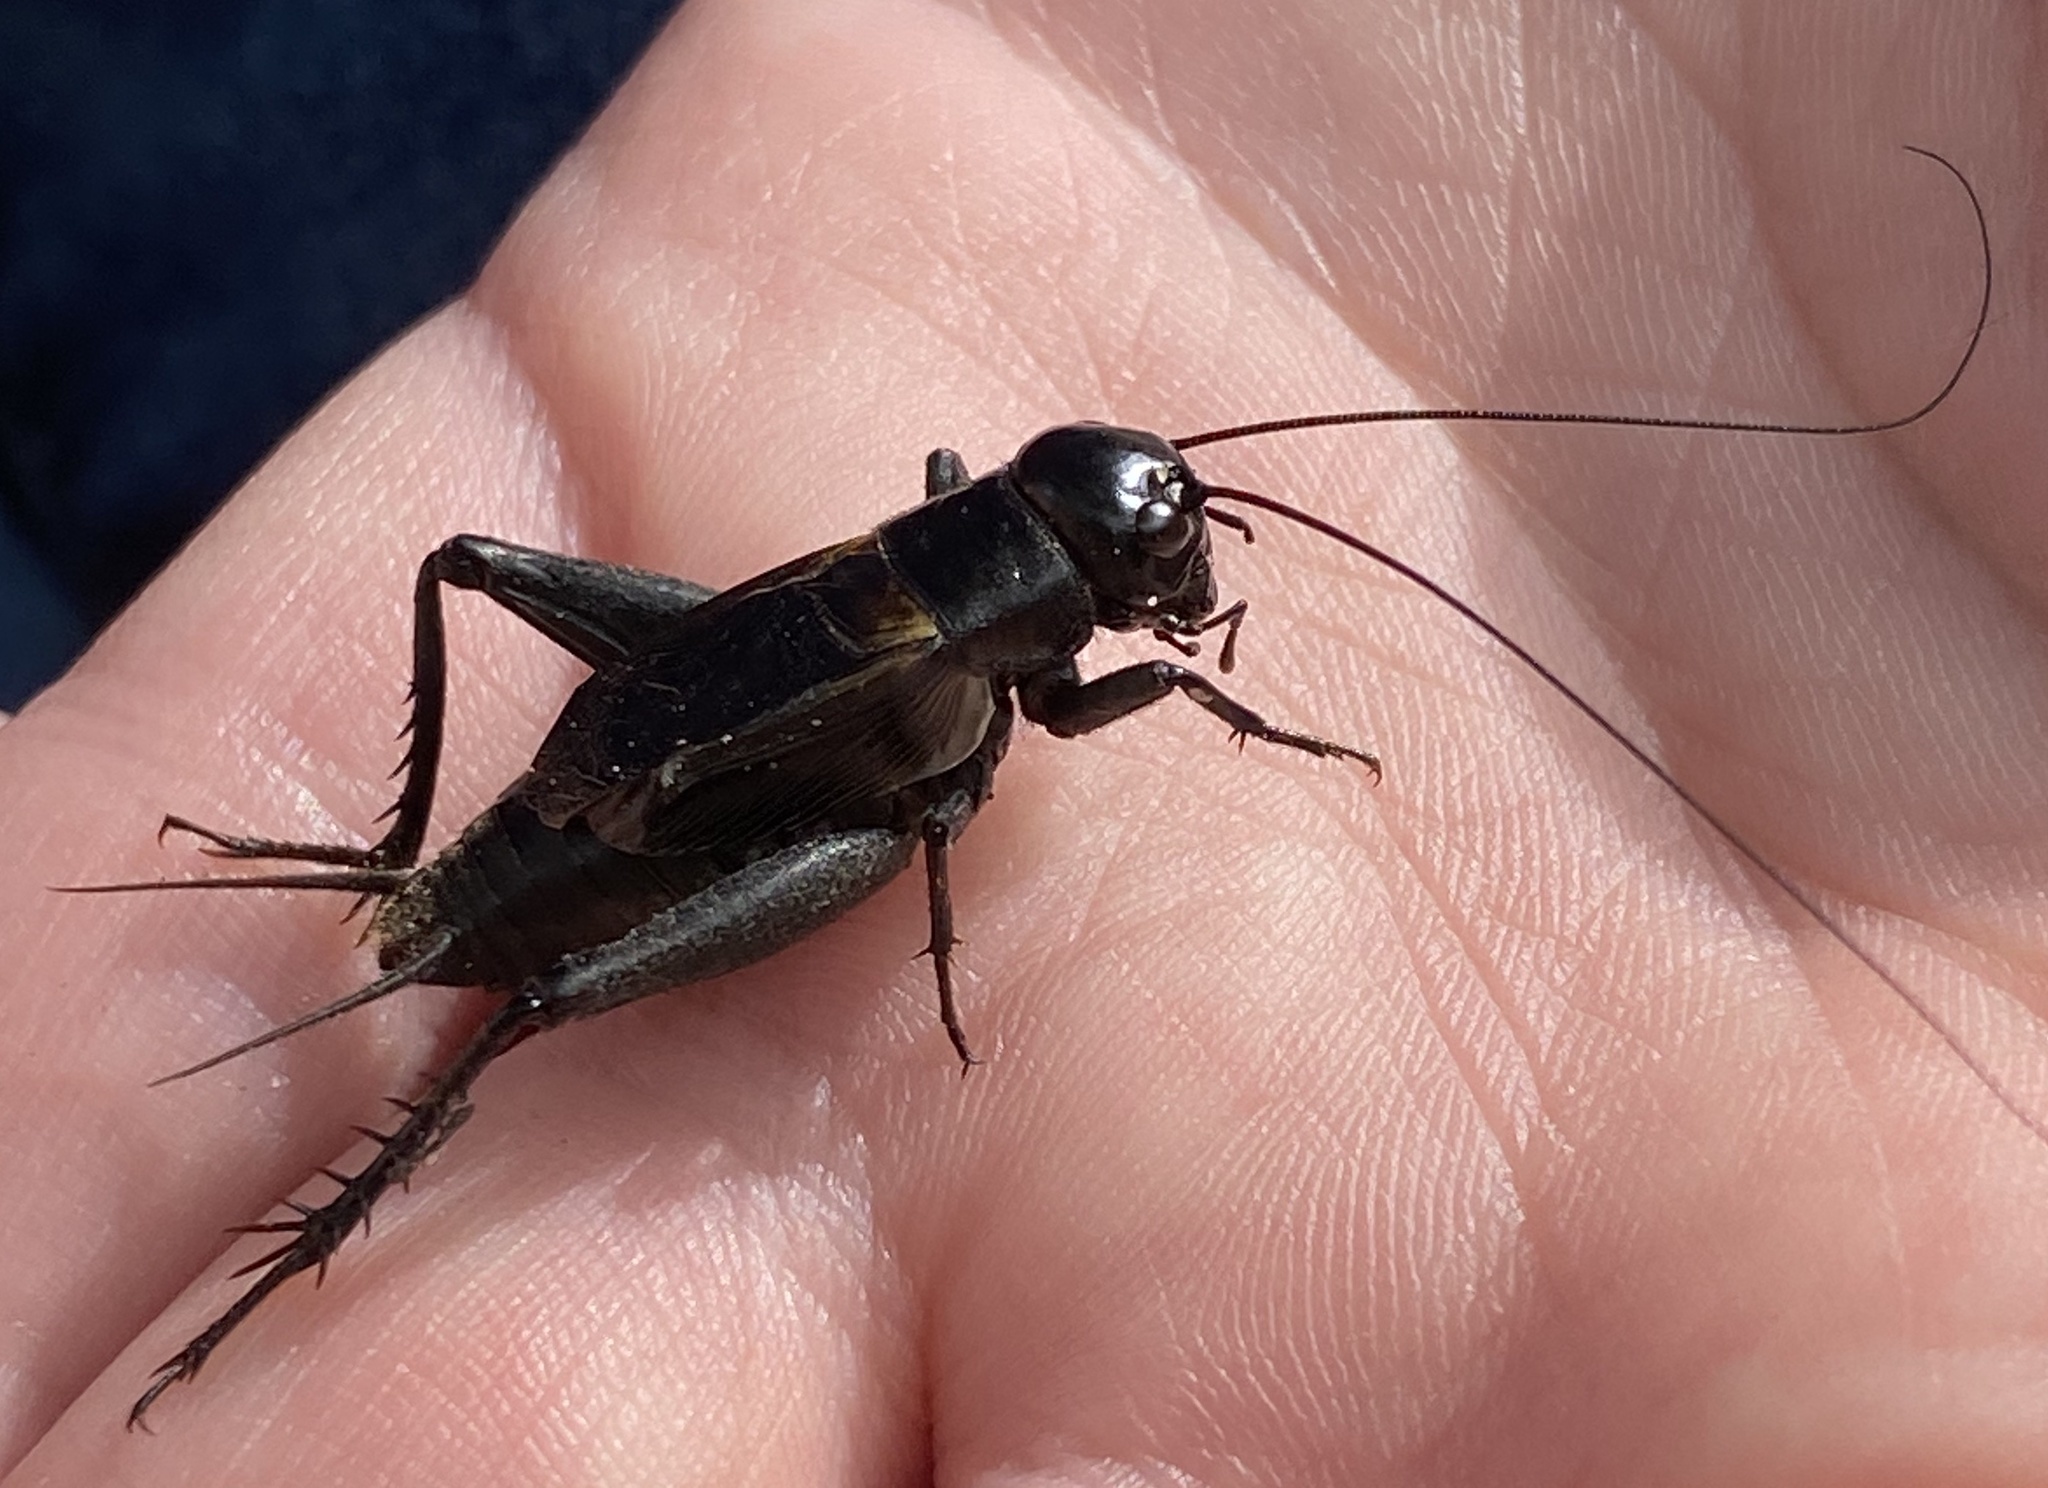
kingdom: Animalia
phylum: Arthropoda
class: Insecta
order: Orthoptera
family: Gryllidae
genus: Gryllus
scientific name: Gryllus pennsylvanicus
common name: Fall field cricket
